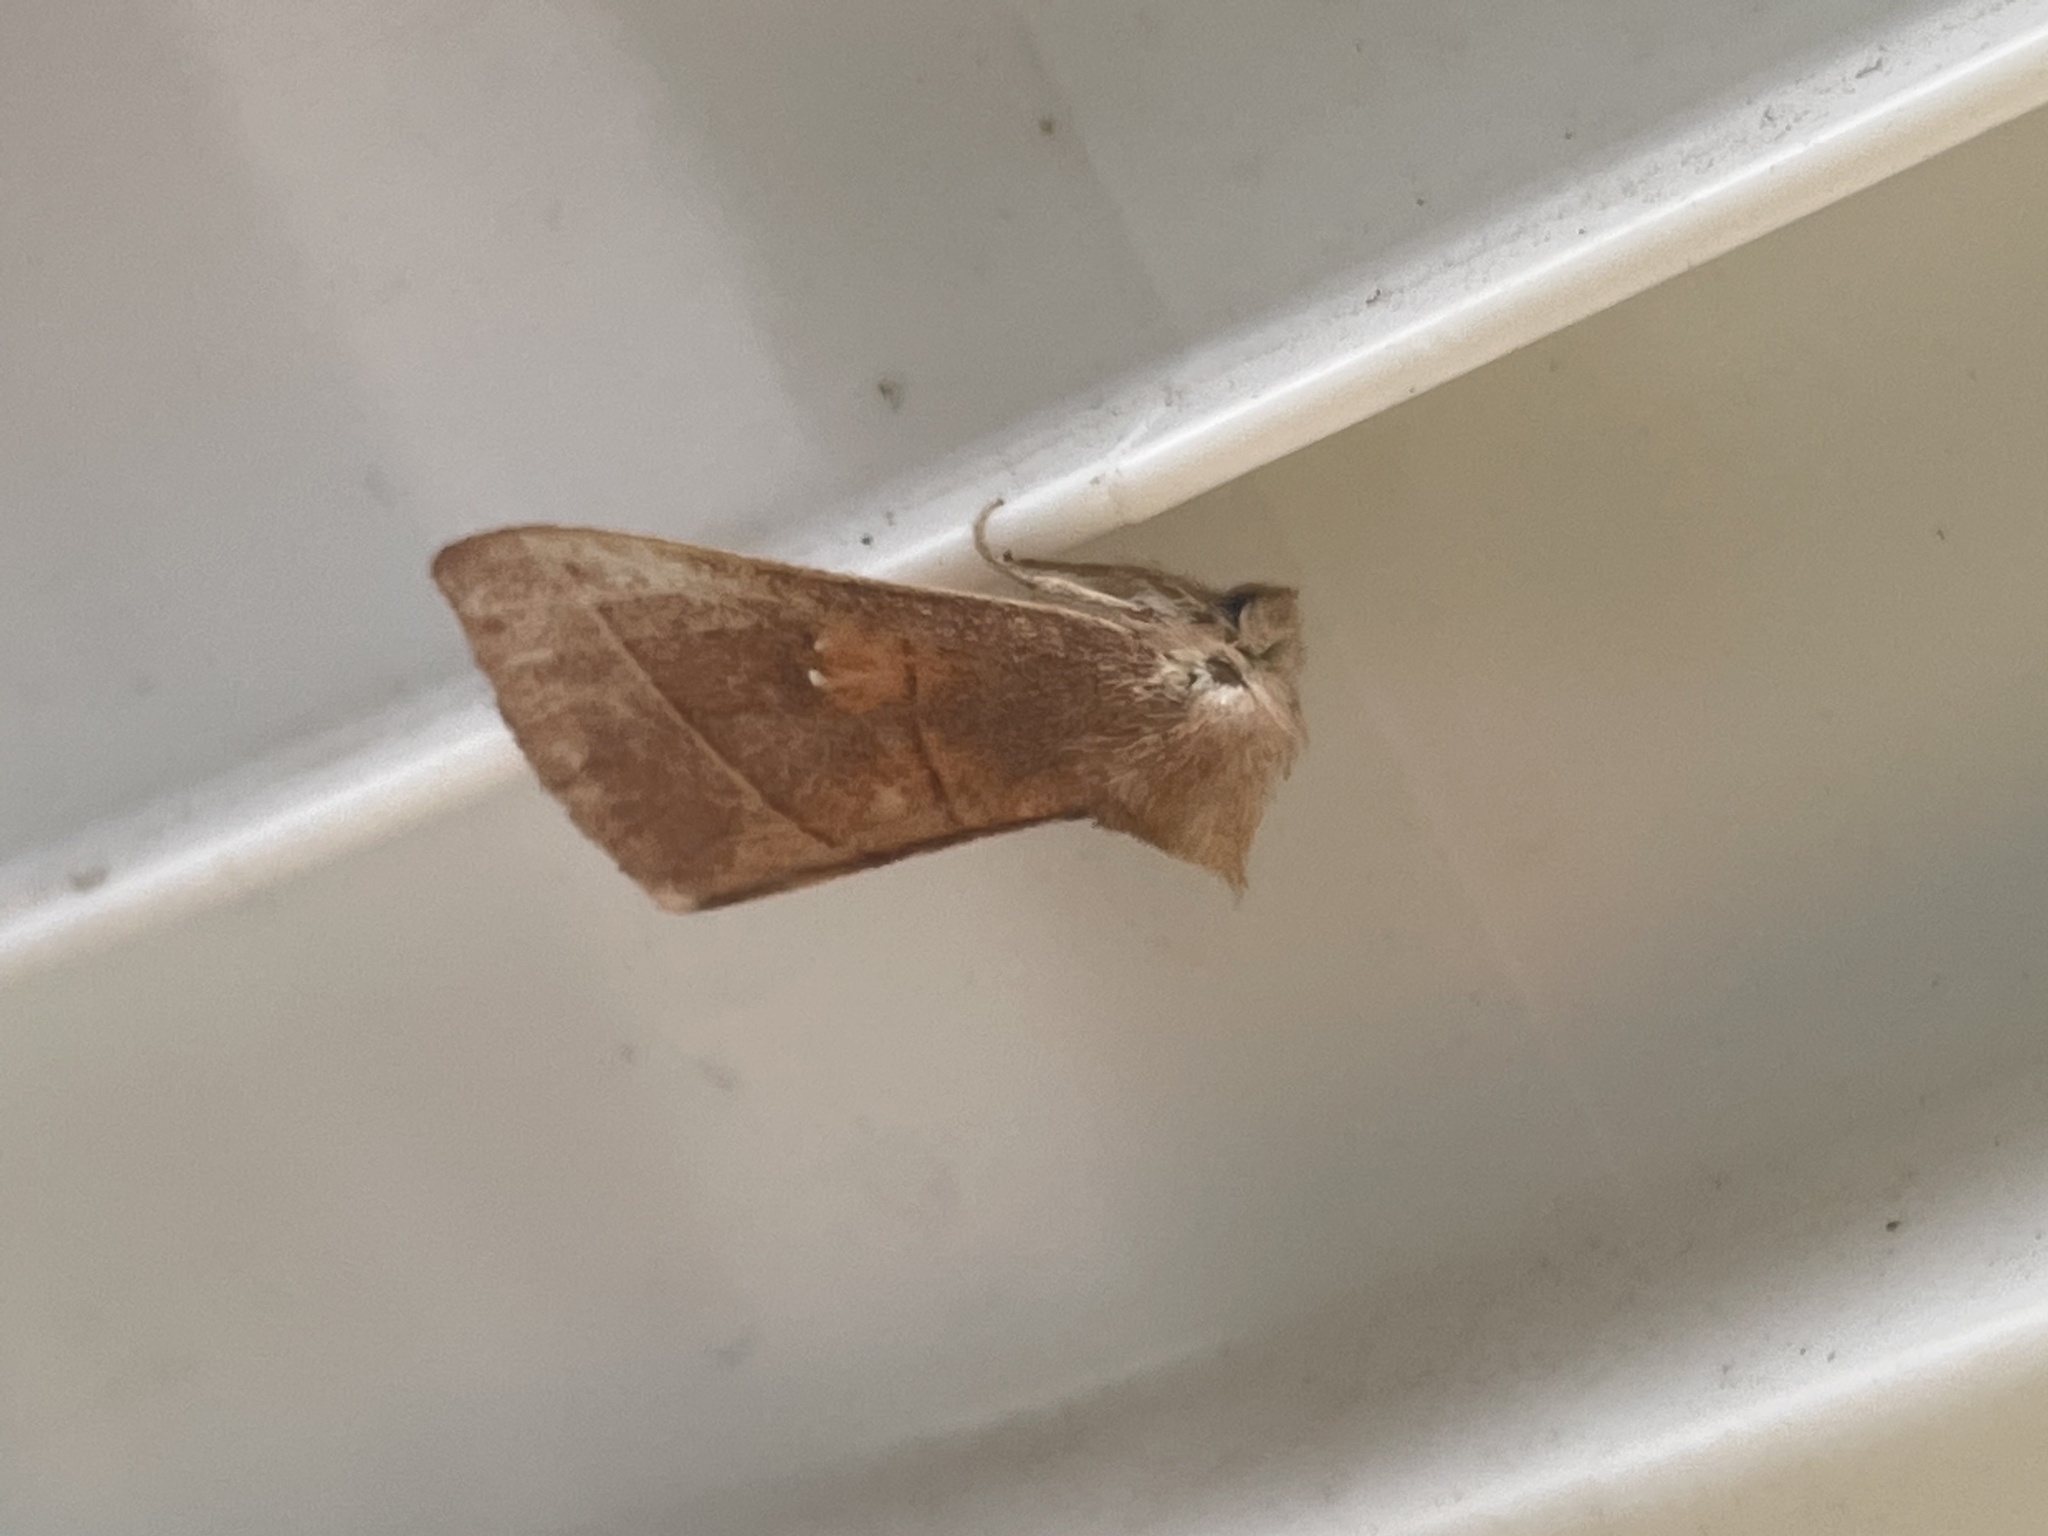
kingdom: Animalia
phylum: Arthropoda
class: Insecta
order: Lepidoptera
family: Notodontidae
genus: Nadata
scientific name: Nadata gibbosa
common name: White-dotted prominent
